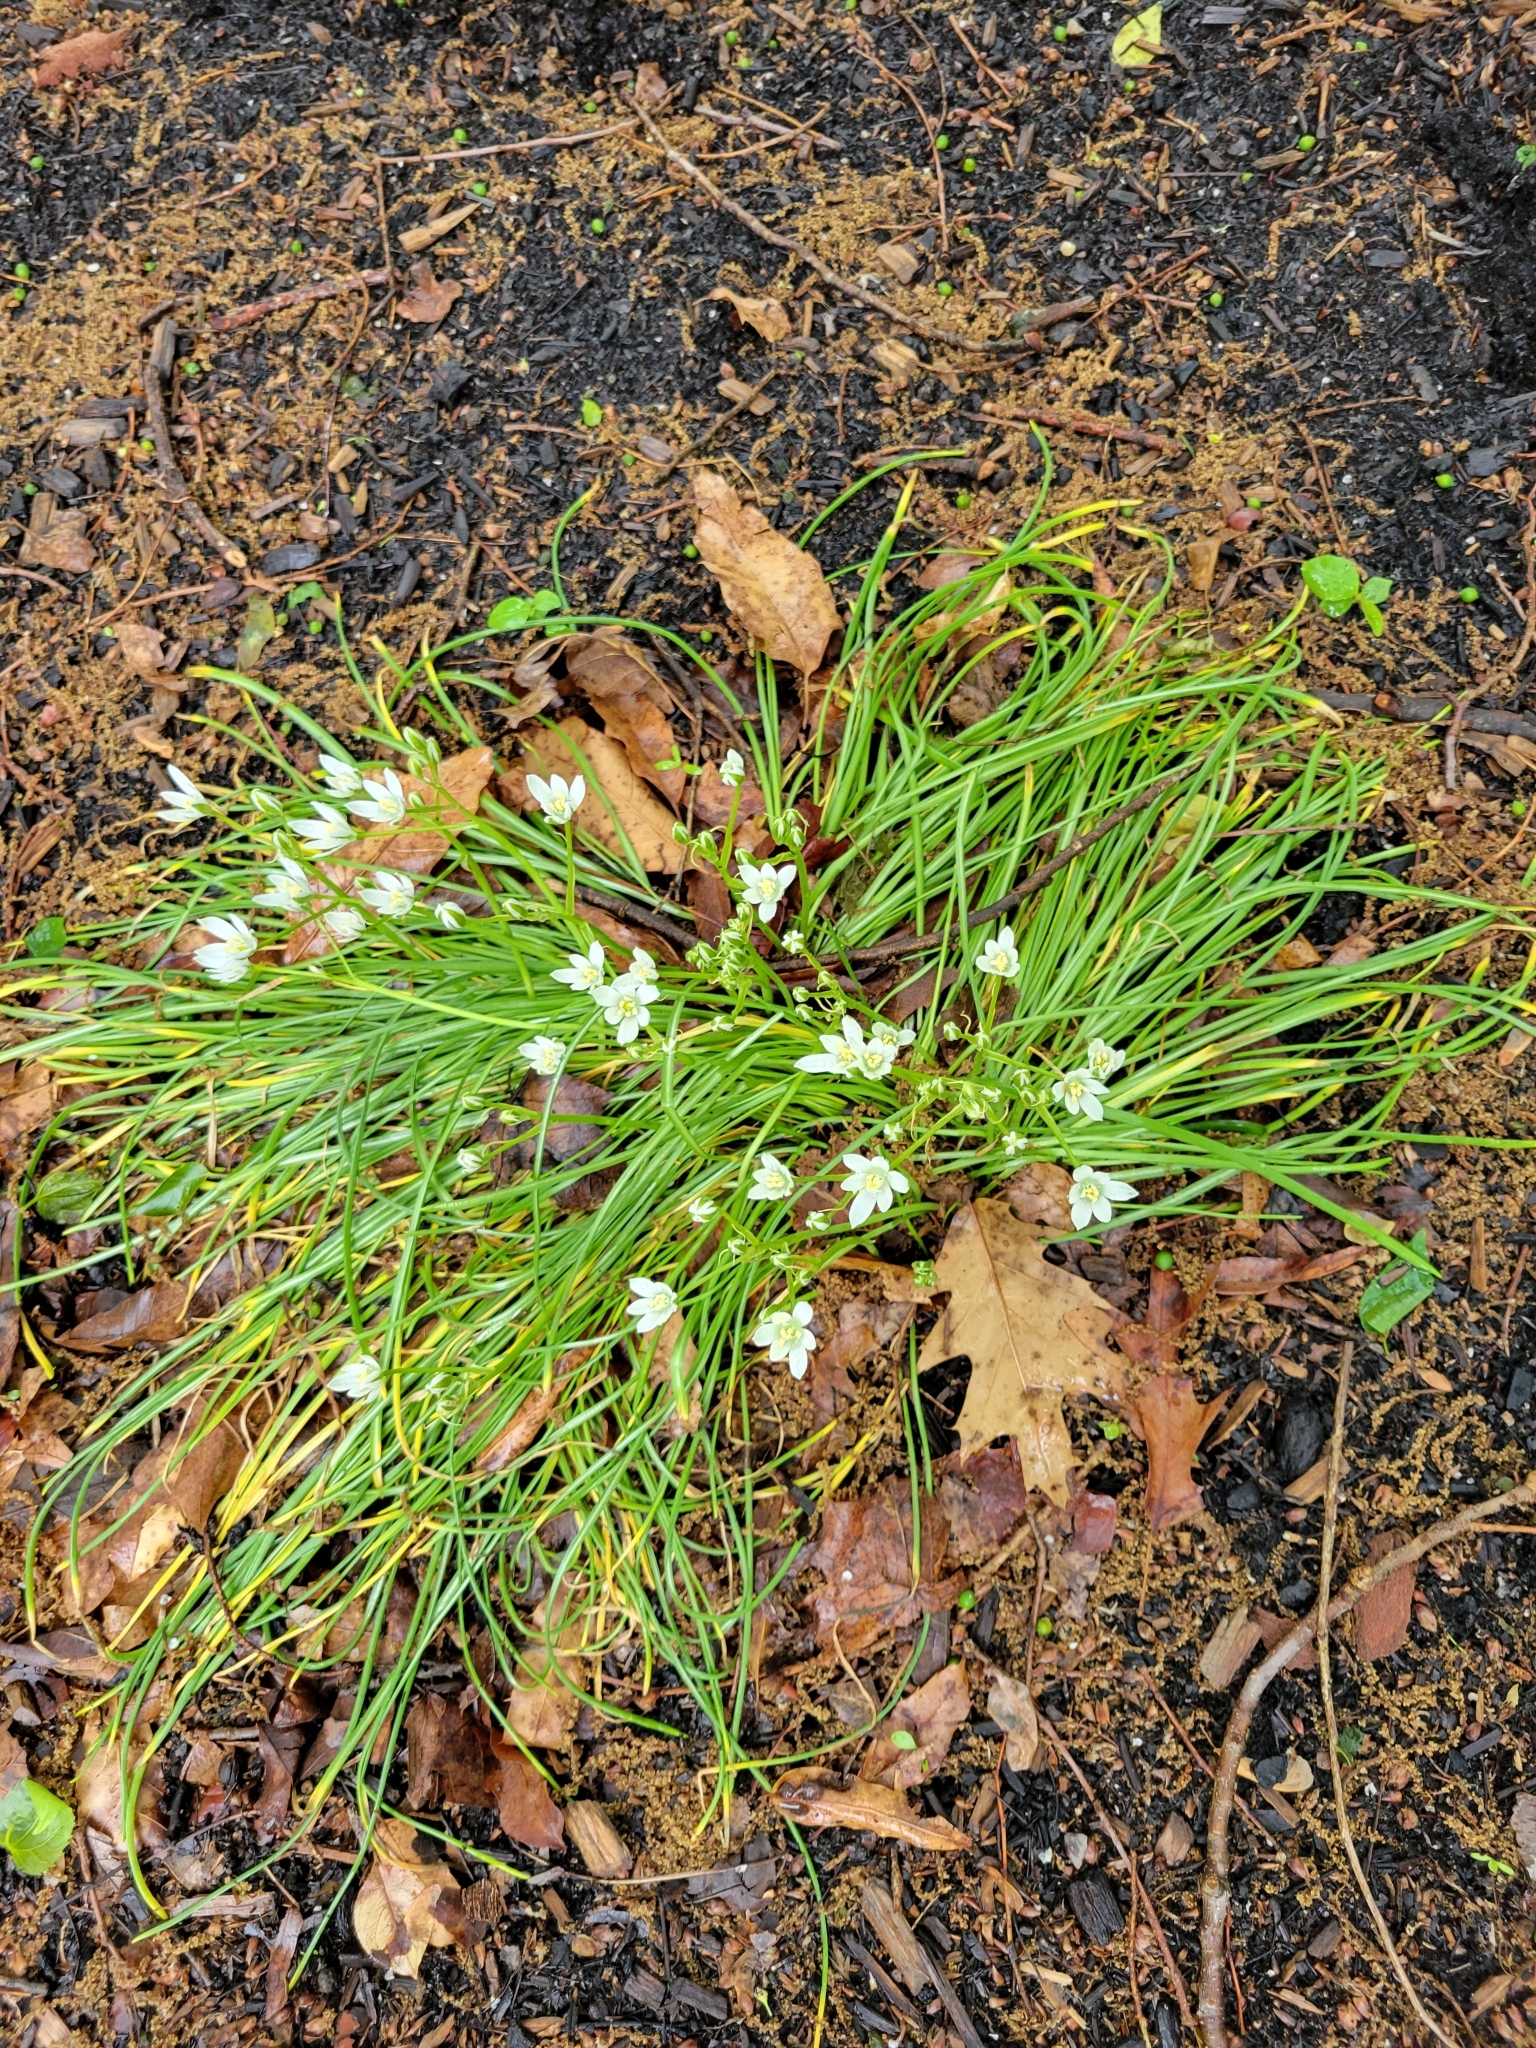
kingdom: Plantae
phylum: Tracheophyta
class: Liliopsida
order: Asparagales
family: Asparagaceae
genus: Ornithogalum
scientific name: Ornithogalum umbellatum
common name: Garden star-of-bethlehem
